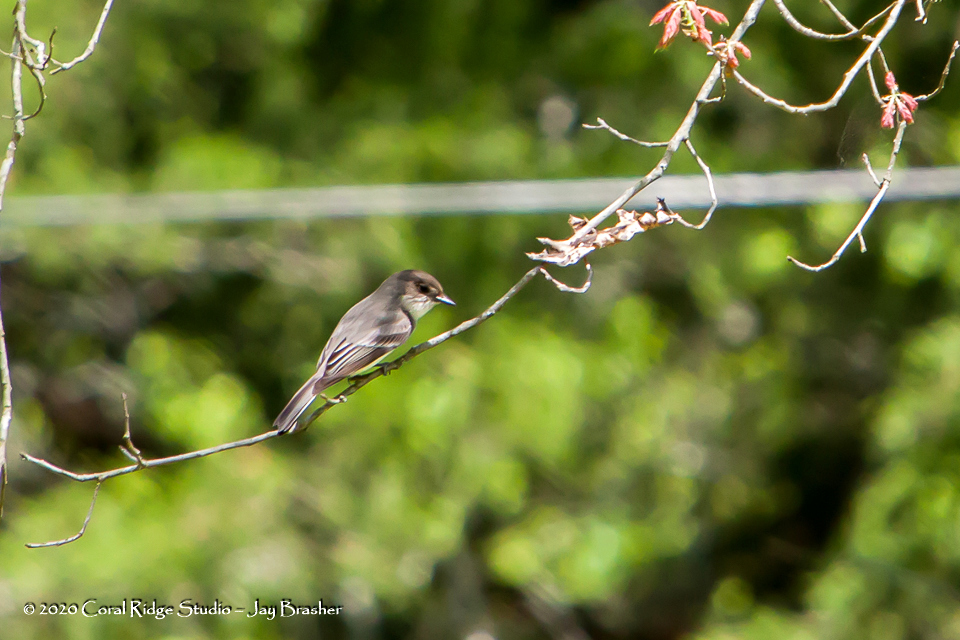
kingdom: Animalia
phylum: Chordata
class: Aves
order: Passeriformes
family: Tyrannidae
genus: Sayornis
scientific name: Sayornis phoebe
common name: Eastern phoebe
